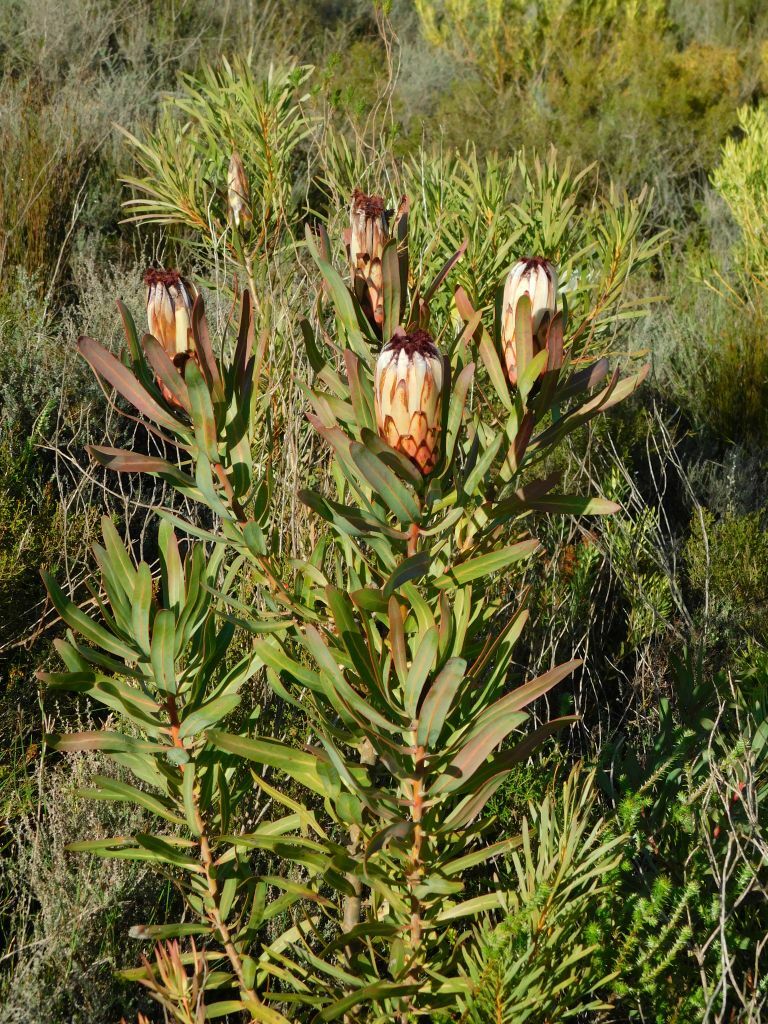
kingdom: Plantae
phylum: Tracheophyta
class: Magnoliopsida
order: Proteales
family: Proteaceae
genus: Protea
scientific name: Protea neriifolia
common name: Blue sugarbush
